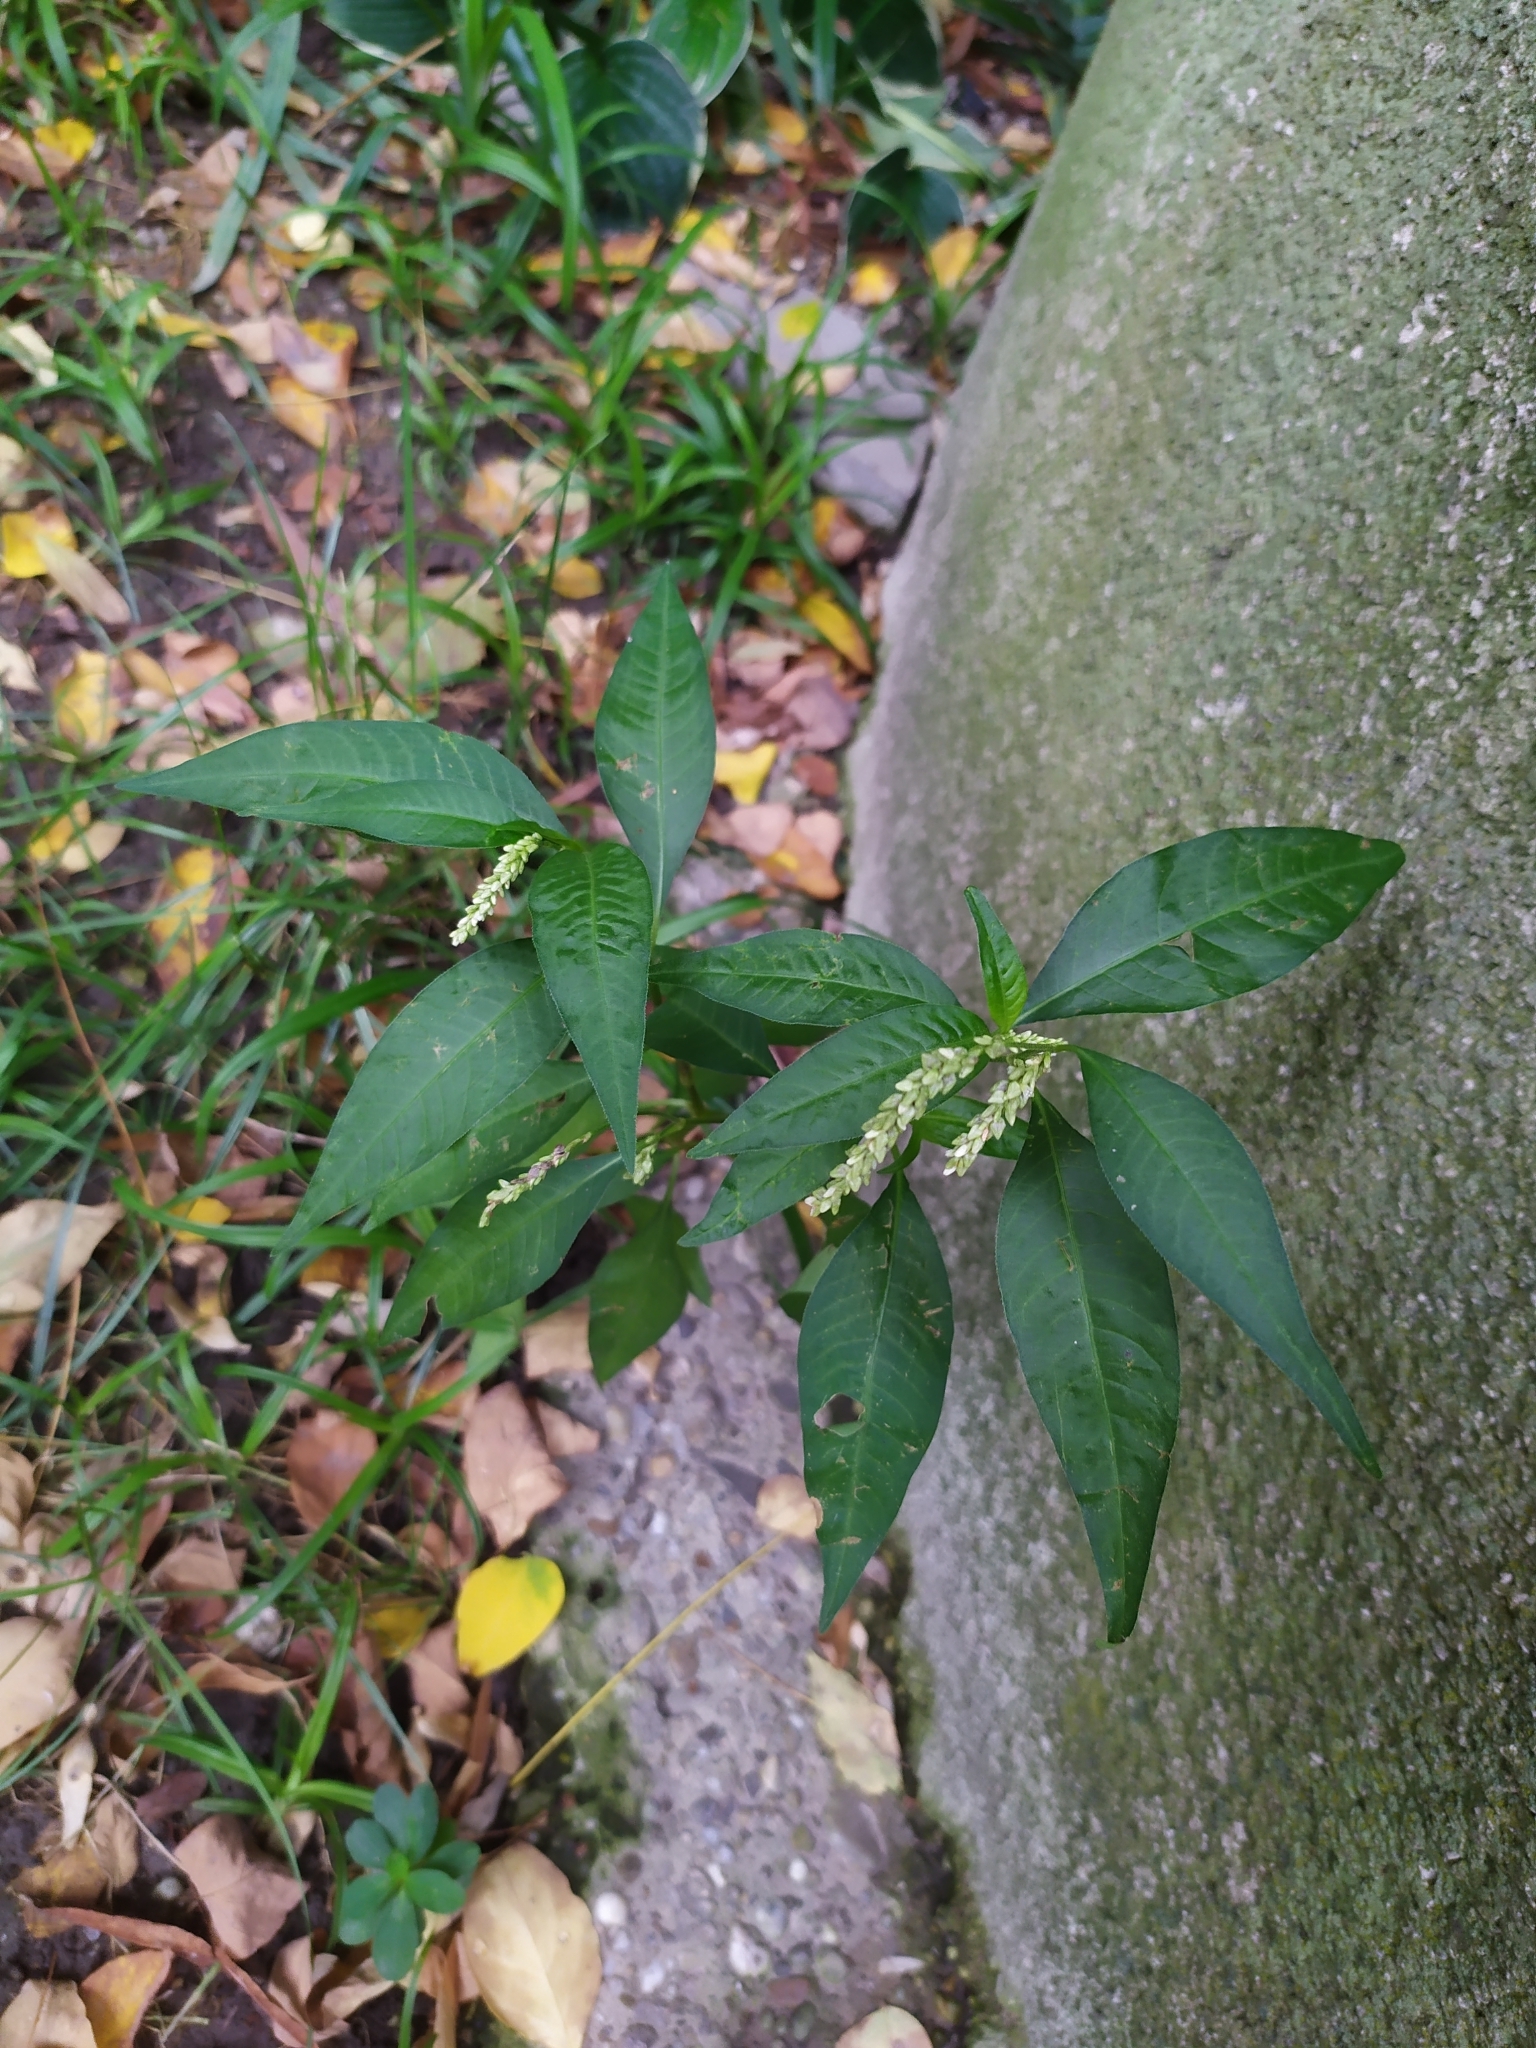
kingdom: Plantae
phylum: Tracheophyta
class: Magnoliopsida
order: Caryophyllales
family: Polygonaceae
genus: Persicaria
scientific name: Persicaria hydropiper
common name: Water-pepper
